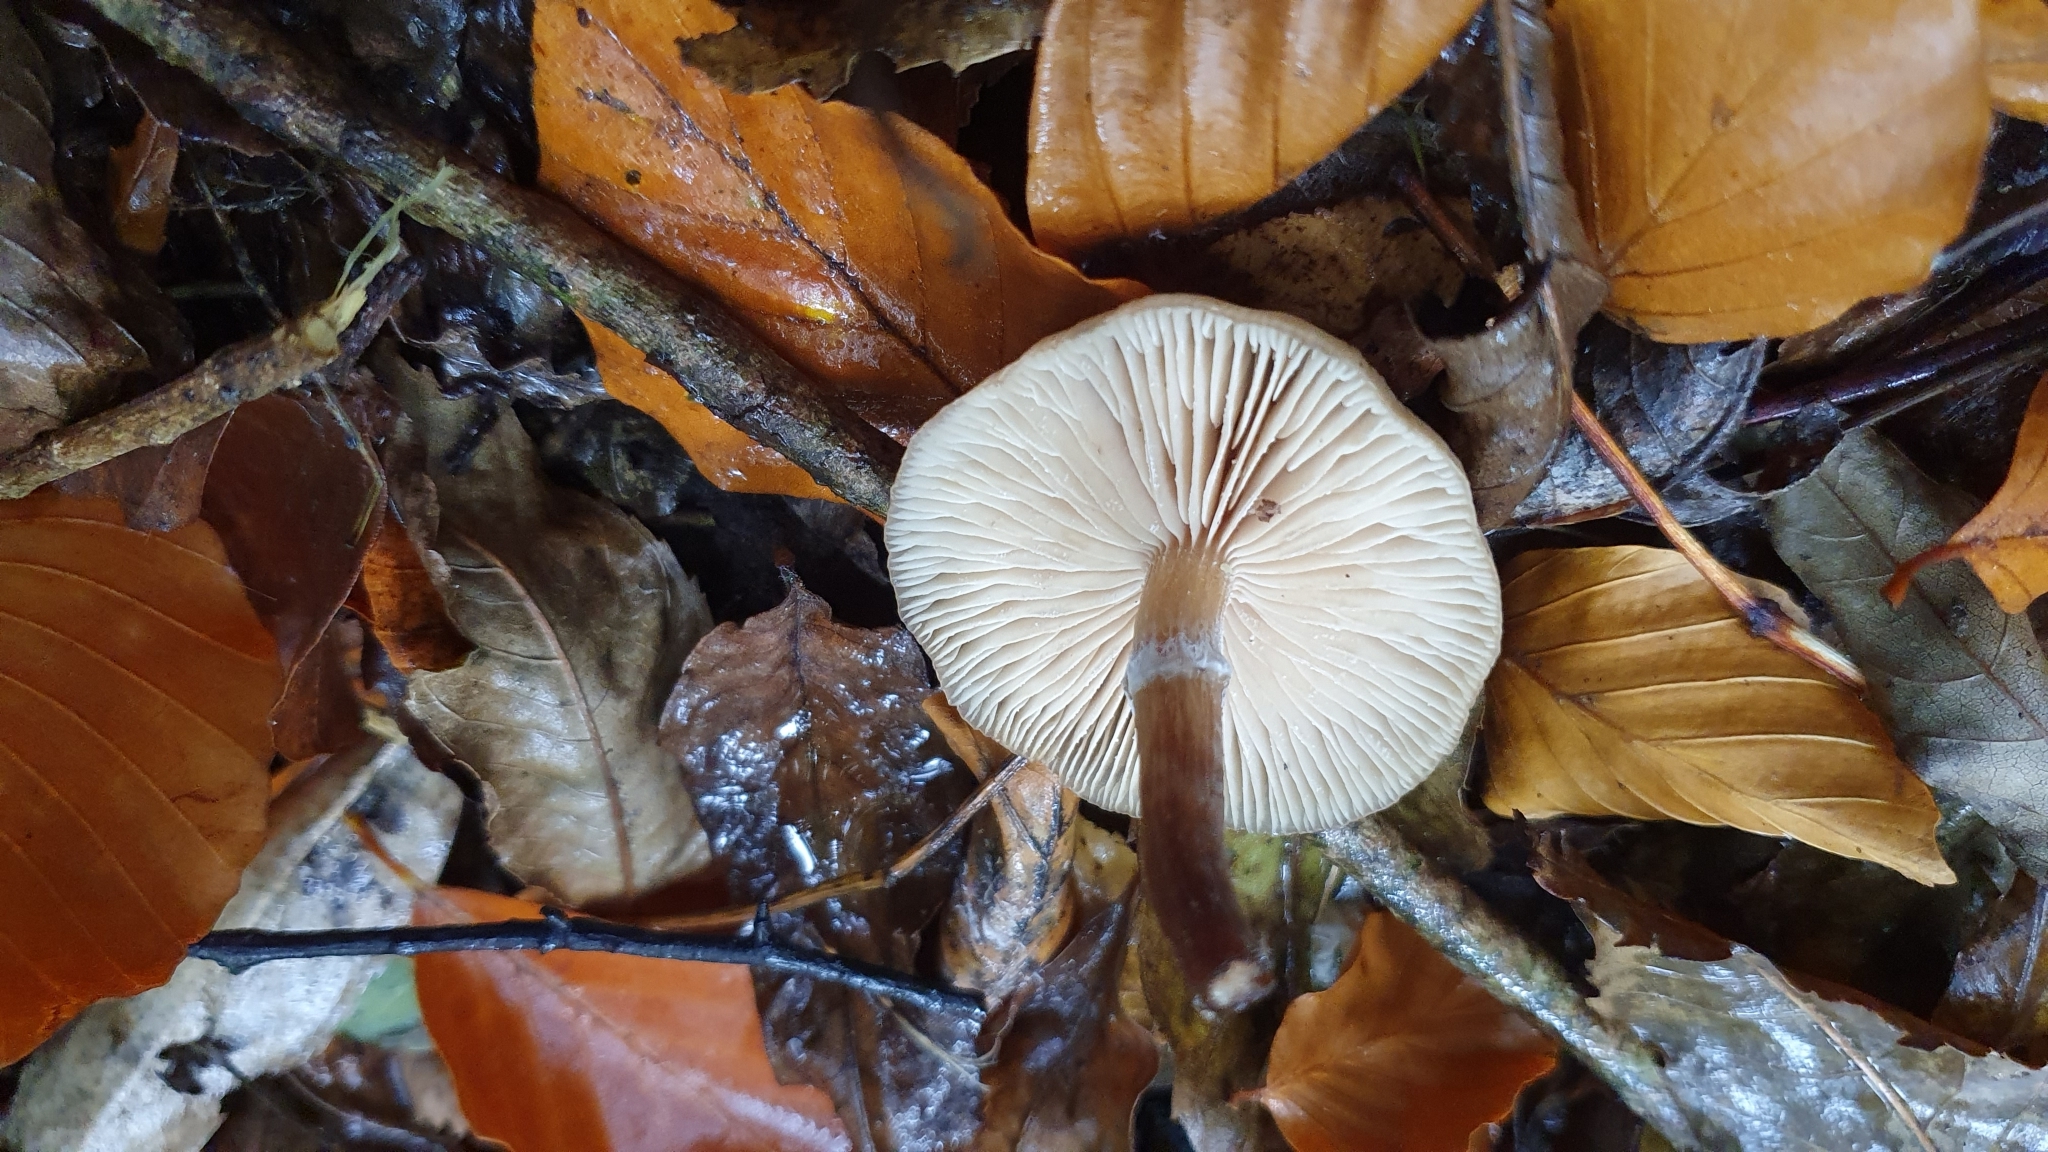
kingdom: Fungi
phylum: Basidiomycota
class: Agaricomycetes
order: Agaricales
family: Physalacriaceae
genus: Armillaria
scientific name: Armillaria novae-zelandiae
